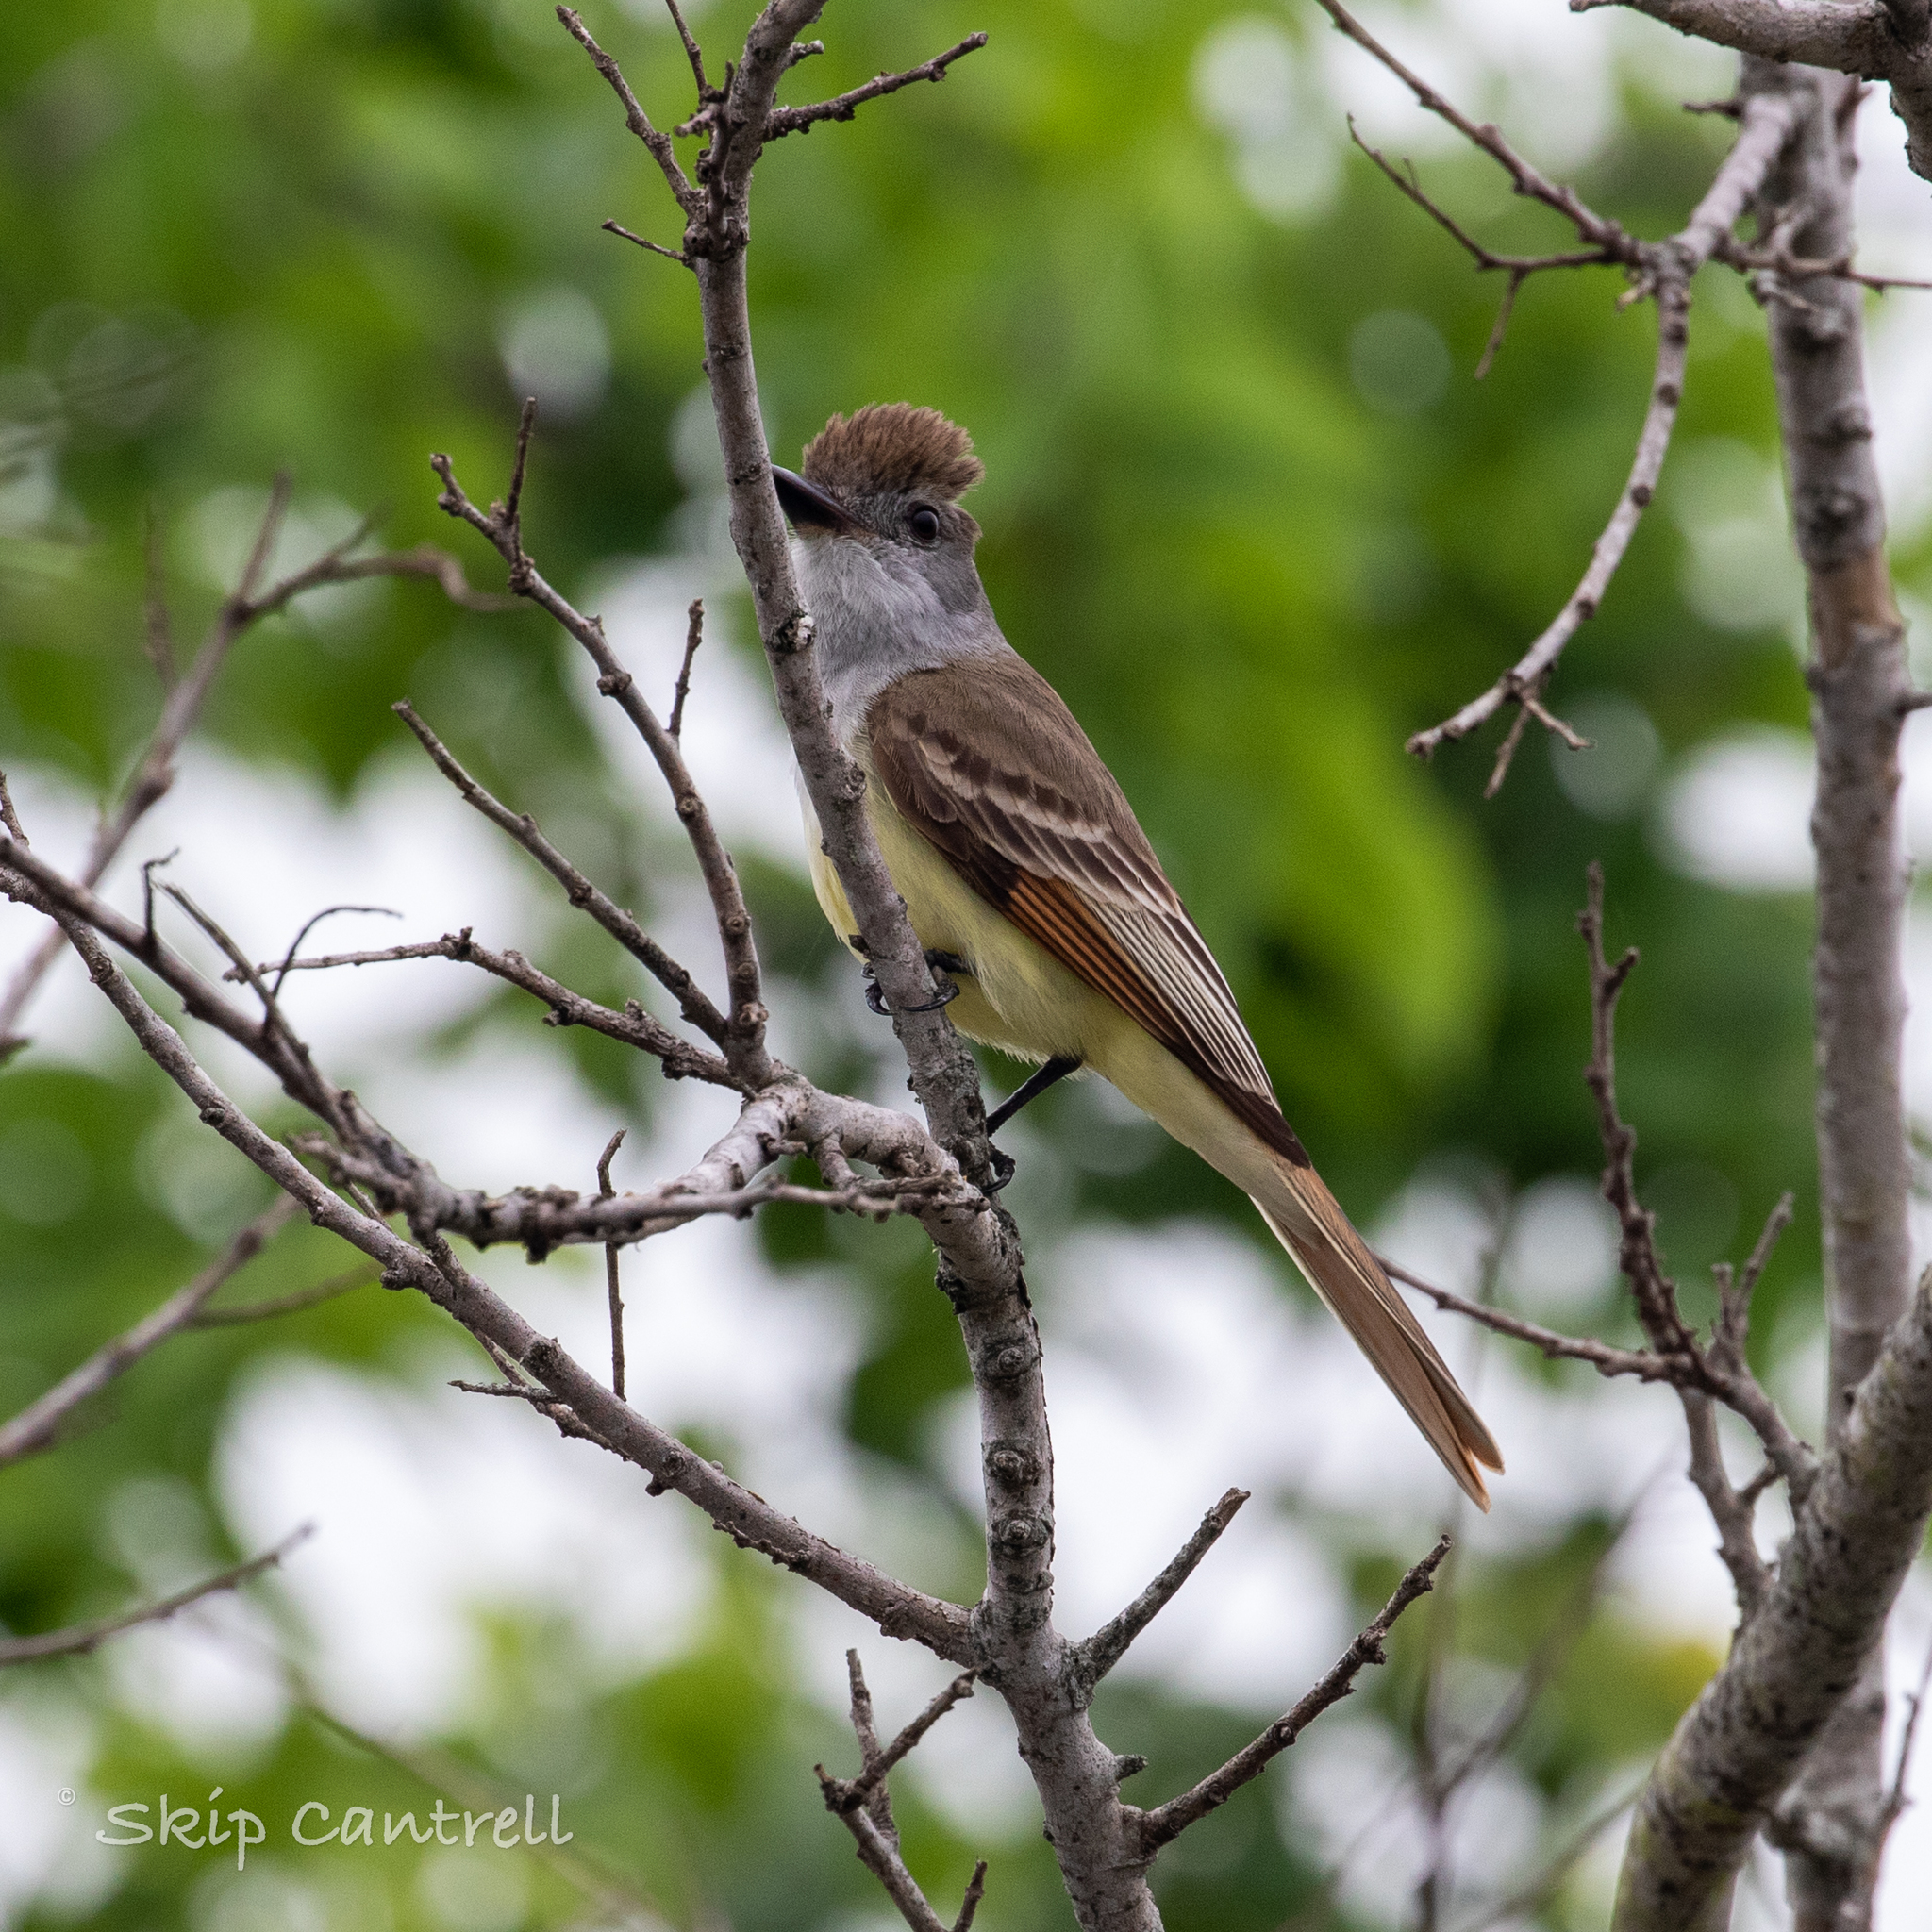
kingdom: Animalia
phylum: Chordata
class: Aves
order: Passeriformes
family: Tyrannidae
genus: Myiarchus
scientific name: Myiarchus tyrannulus
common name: Brown-crested flycatcher
